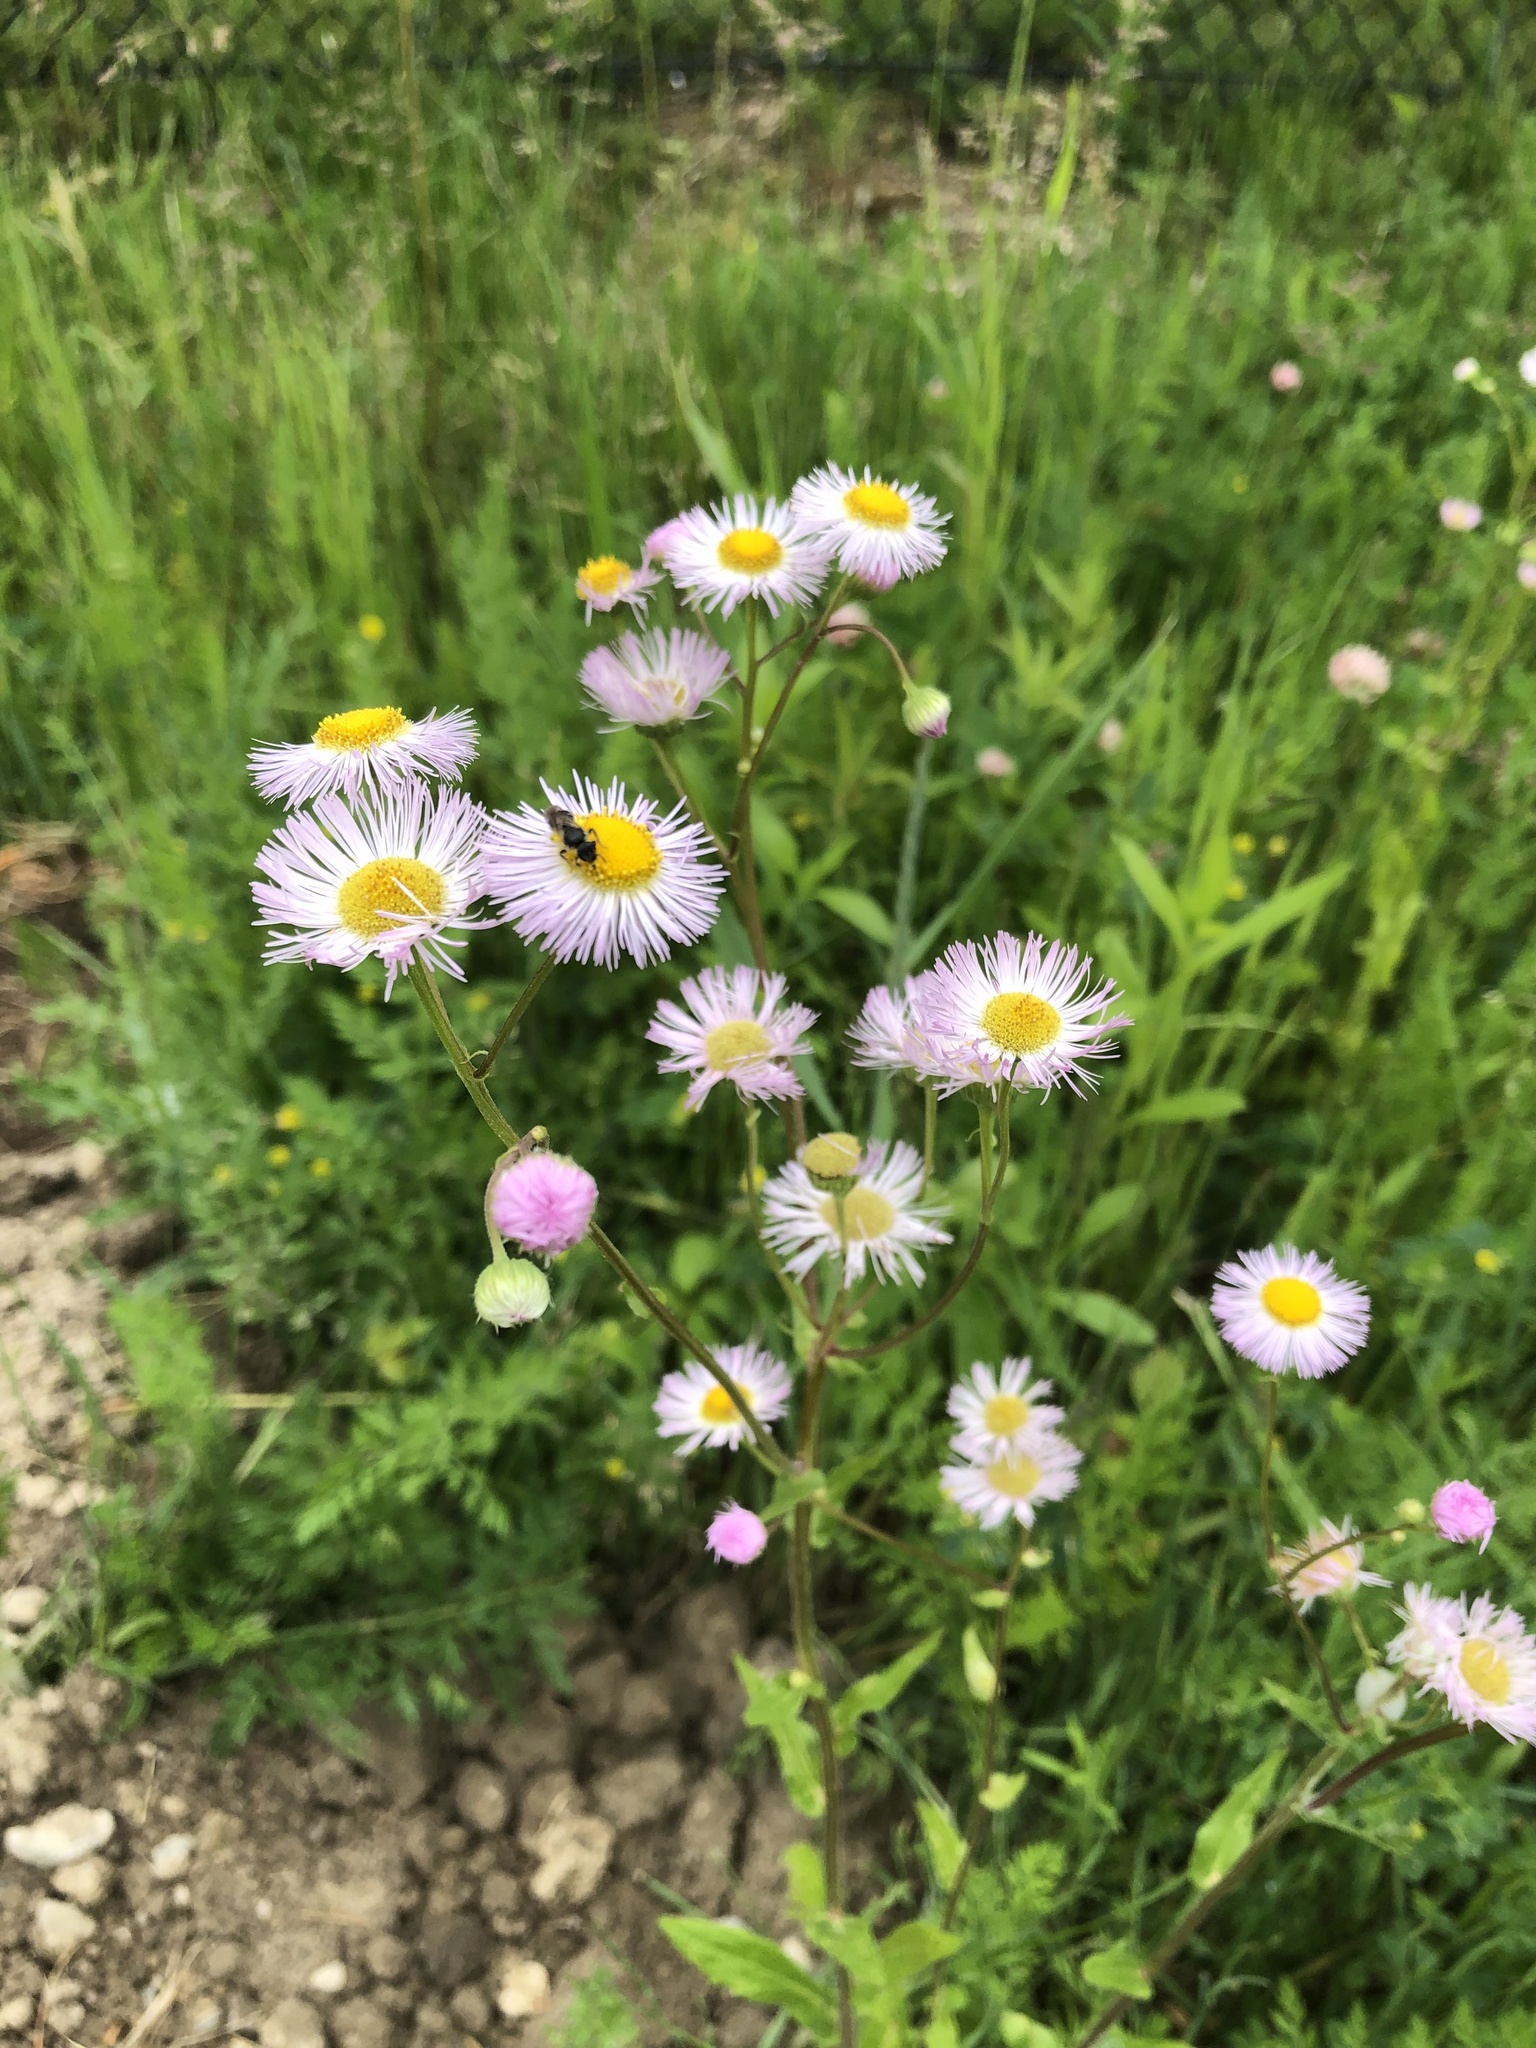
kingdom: Plantae
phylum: Tracheophyta
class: Magnoliopsida
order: Asterales
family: Asteraceae
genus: Erigeron
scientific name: Erigeron philadelphicus
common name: Robin's-plantain
